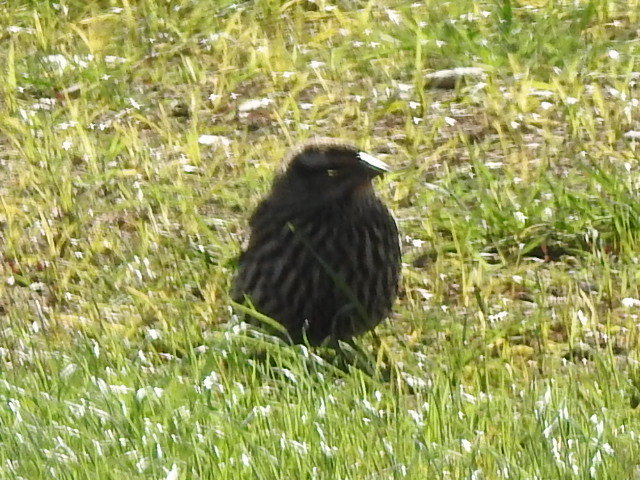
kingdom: Animalia
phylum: Chordata
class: Aves
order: Passeriformes
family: Icteridae
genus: Agelaius
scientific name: Agelaius phoeniceus
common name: Red-winged blackbird
